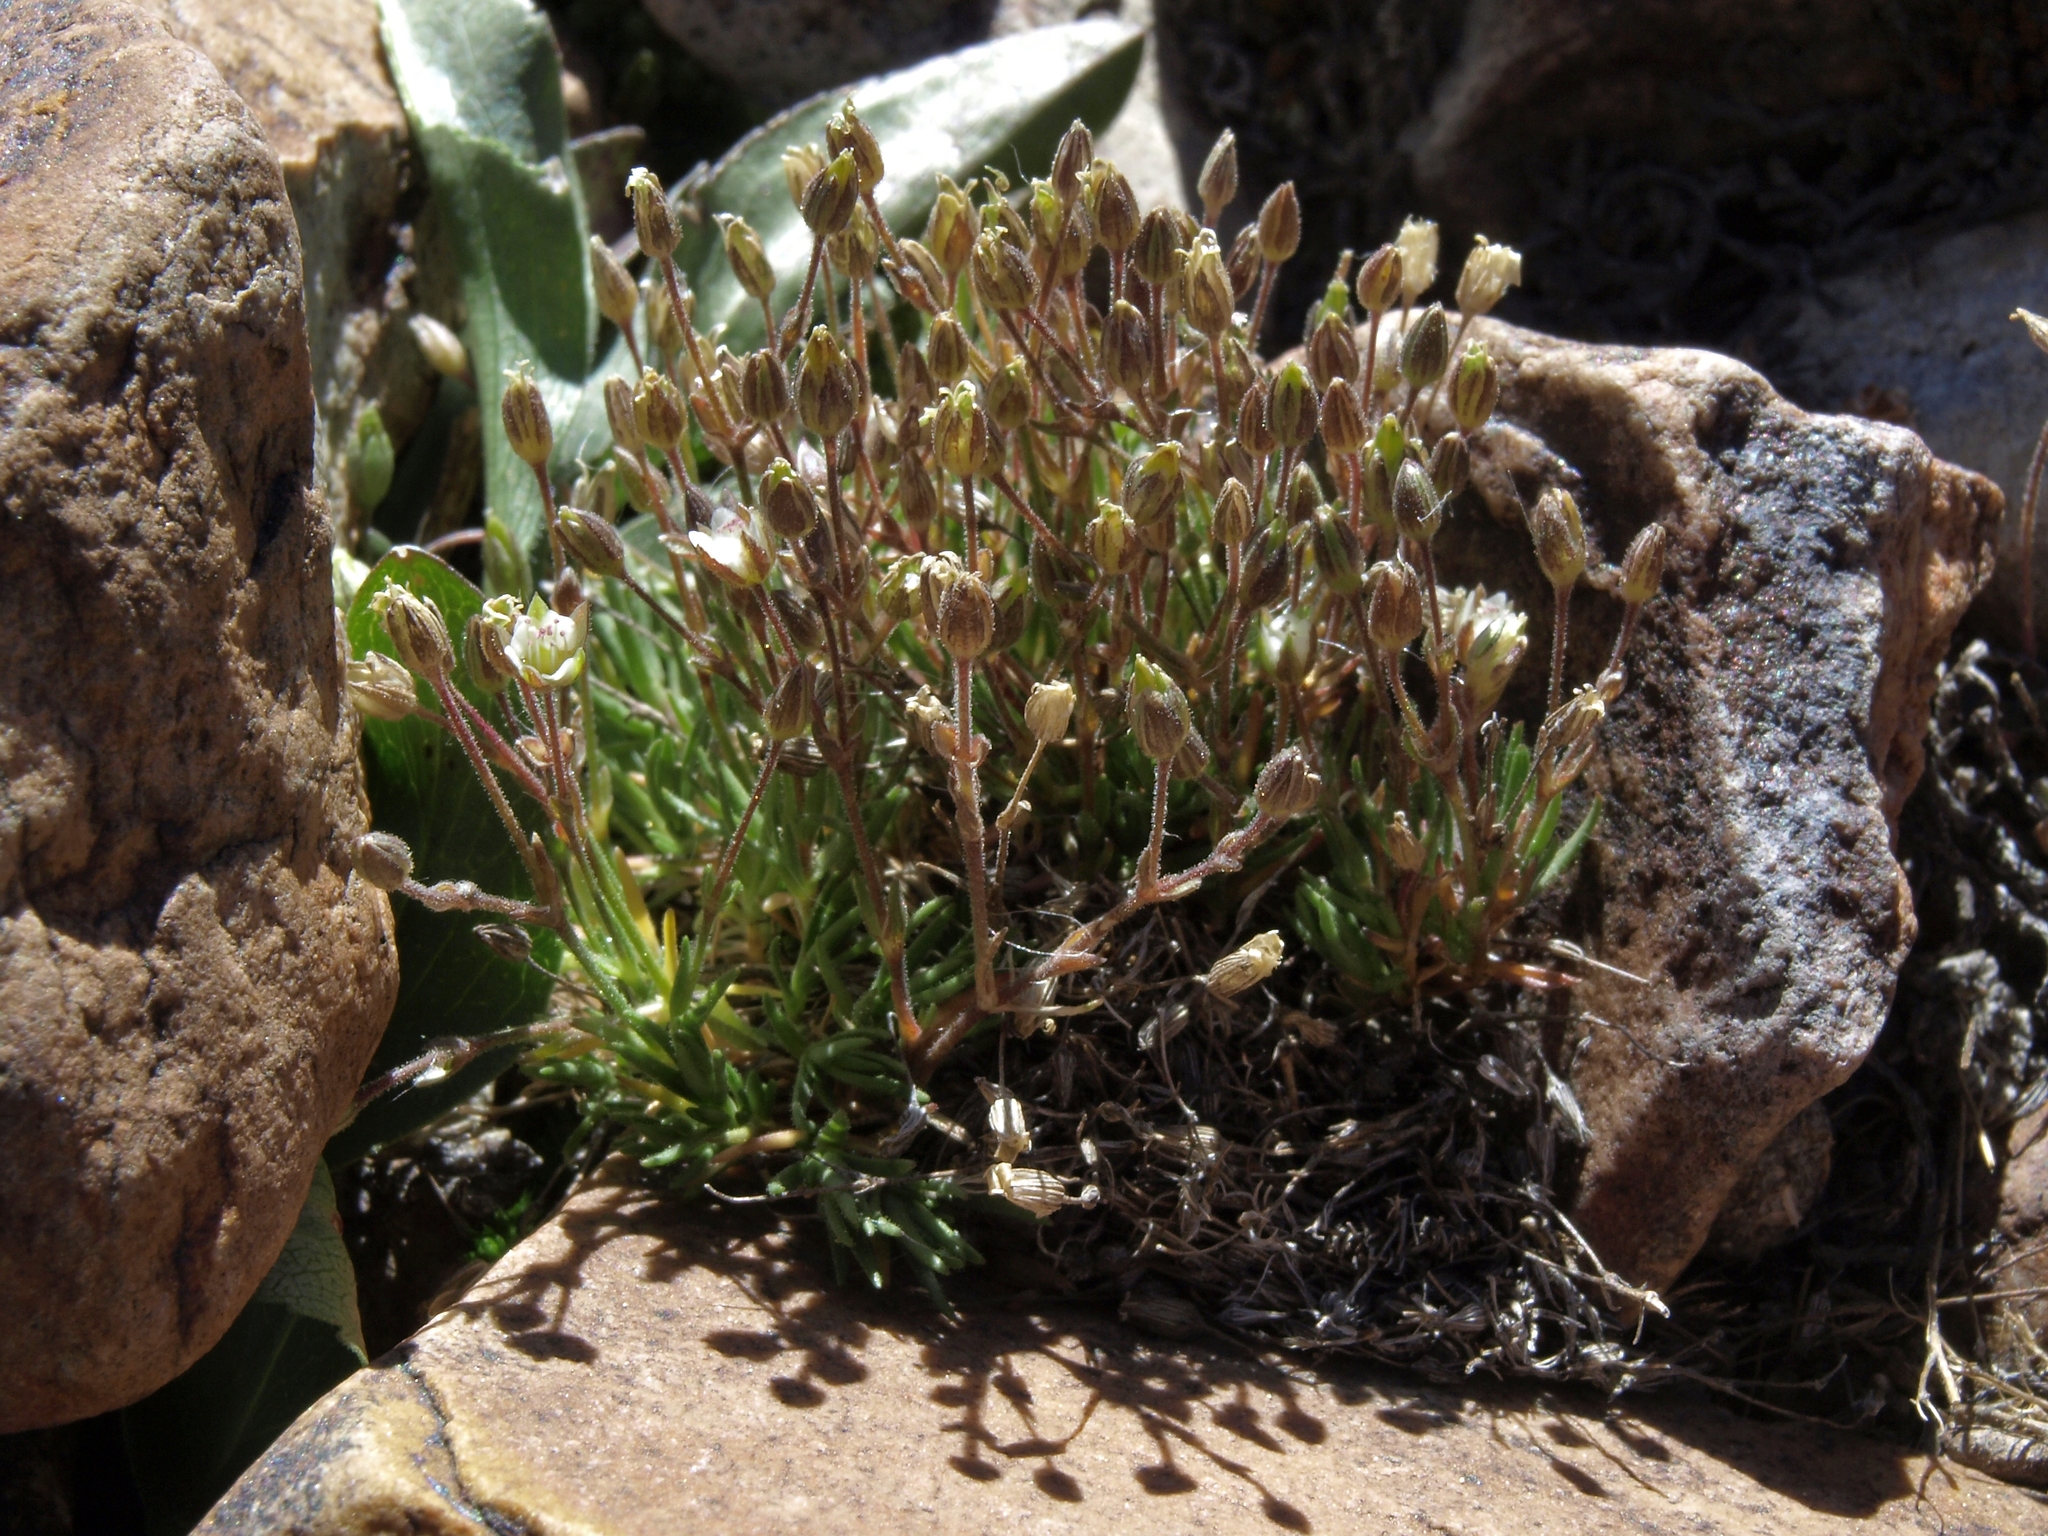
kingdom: Plantae
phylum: Tracheophyta
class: Magnoliopsida
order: Caryophyllales
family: Caryophyllaceae
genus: Sabulina
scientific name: Sabulina rubella
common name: Beautiful sandwort
